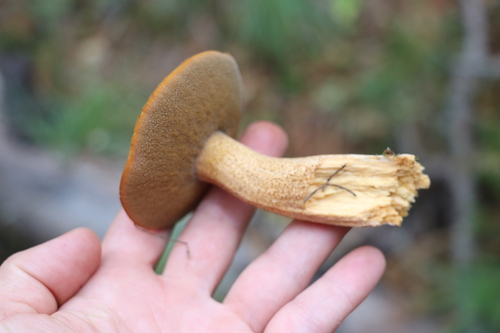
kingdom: Fungi
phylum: Basidiomycota
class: Agaricomycetes
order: Boletales
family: Suillaceae
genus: Suillus
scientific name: Suillus punctipes
